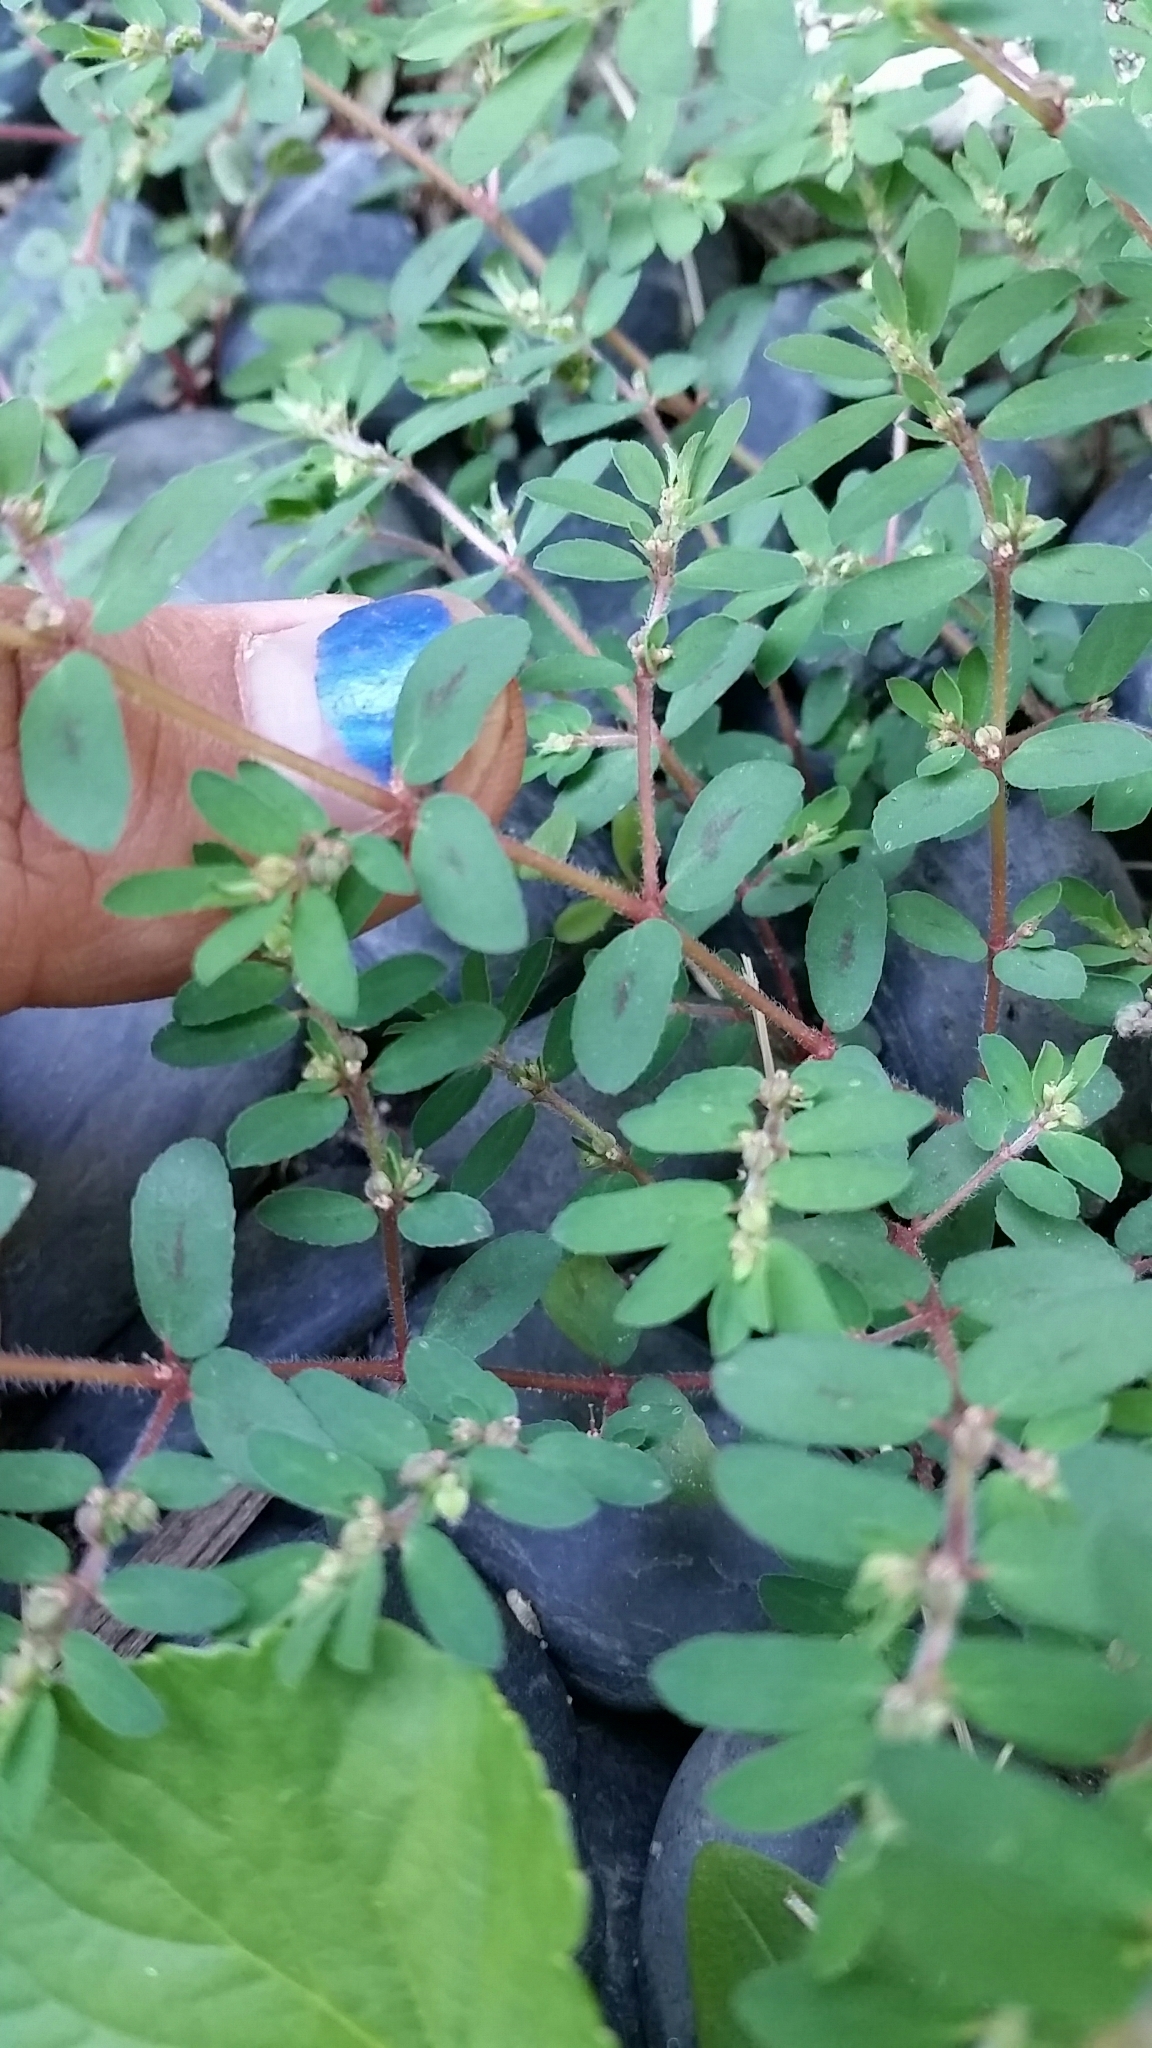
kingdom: Plantae
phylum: Tracheophyta
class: Magnoliopsida
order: Malpighiales
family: Euphorbiaceae
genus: Euphorbia
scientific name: Euphorbia maculata
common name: Spotted spurge
